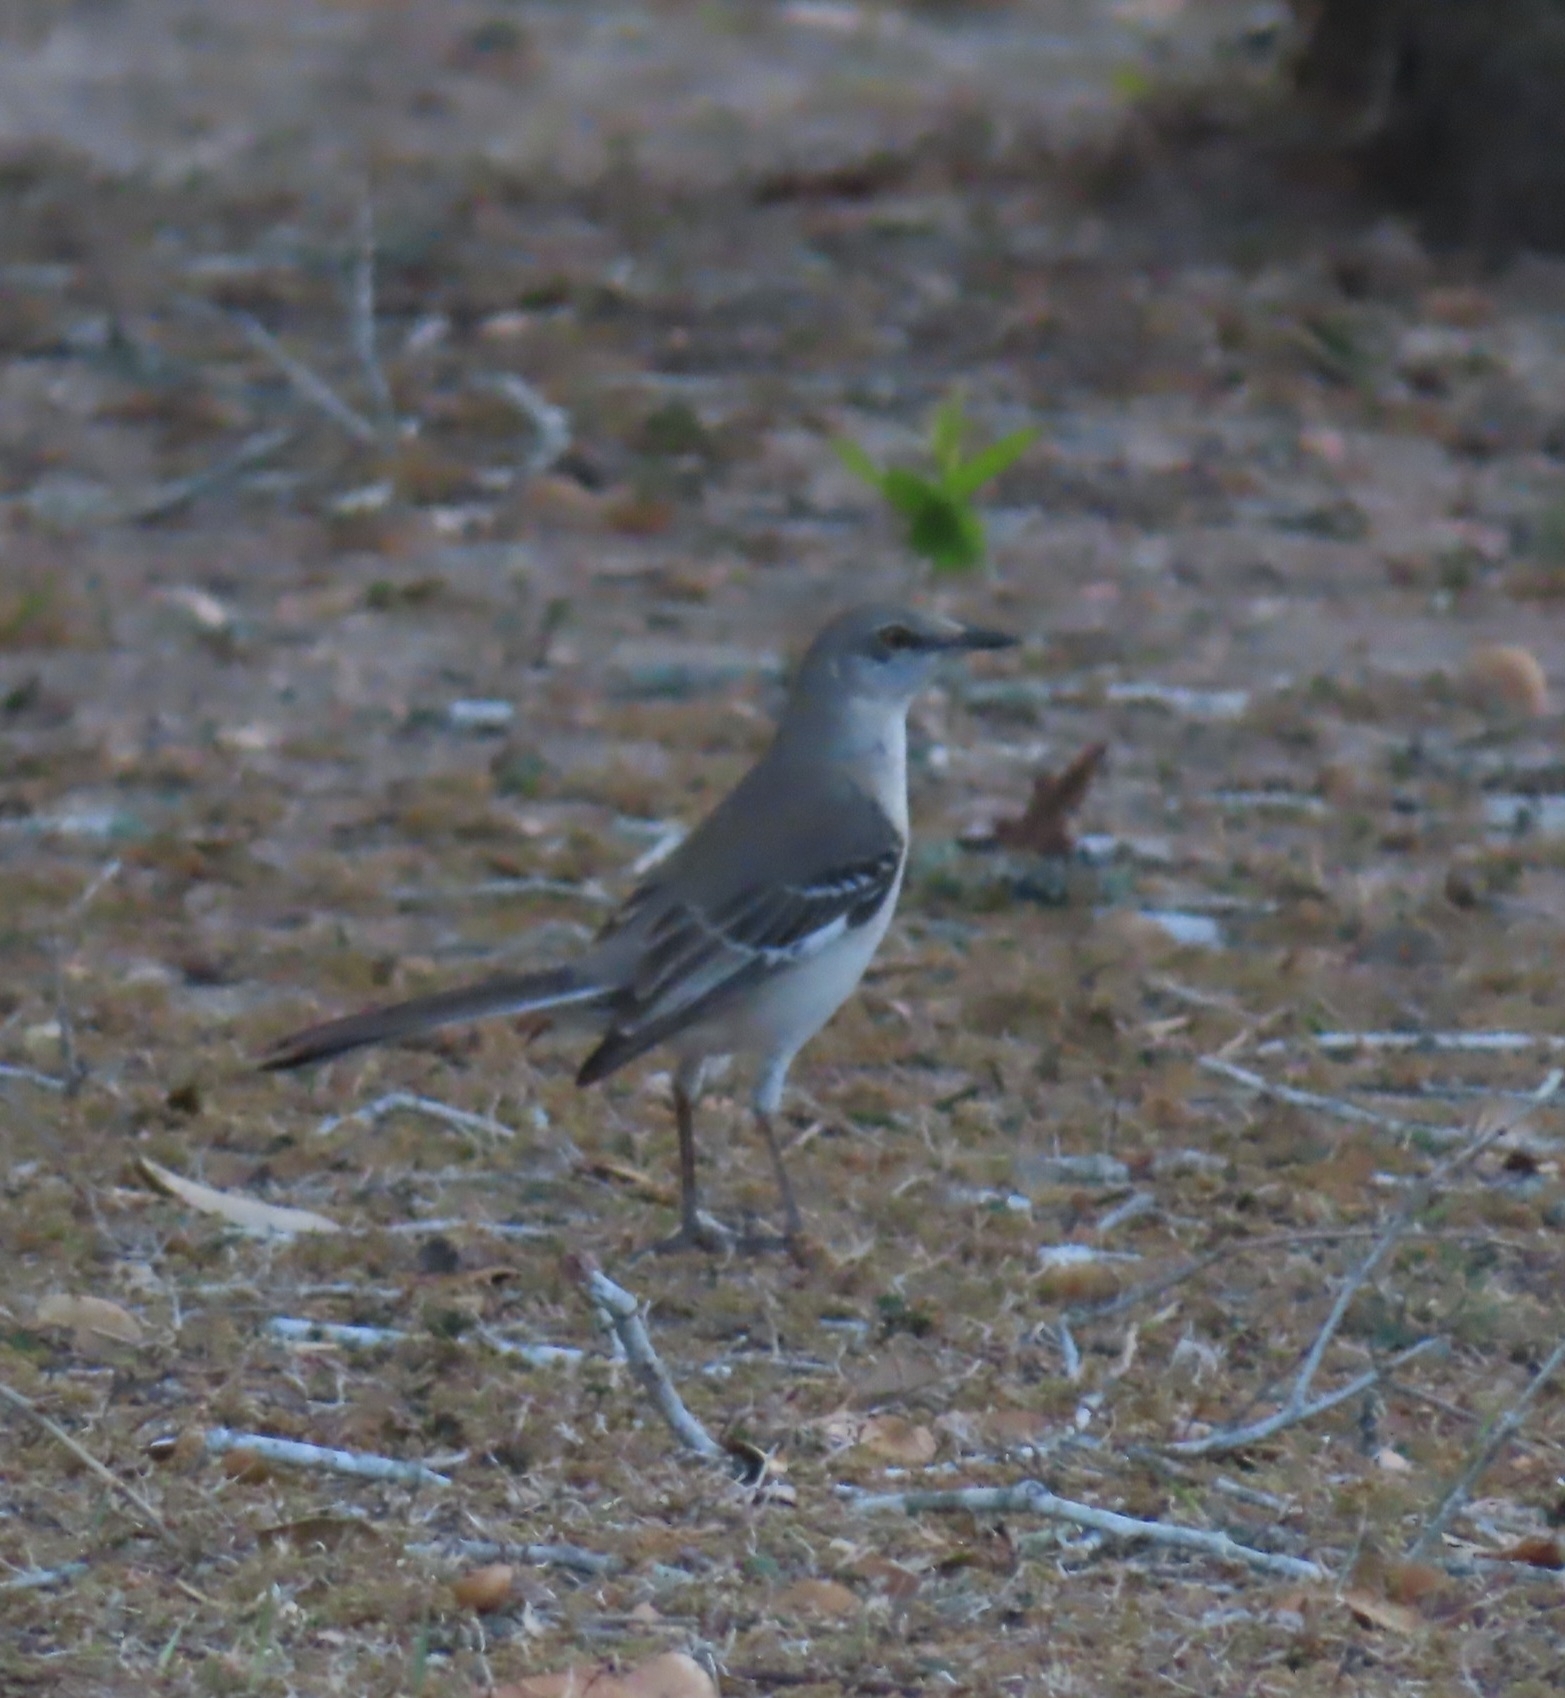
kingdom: Animalia
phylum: Chordata
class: Aves
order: Passeriformes
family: Mimidae
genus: Mimus
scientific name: Mimus polyglottos
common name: Northern mockingbird
